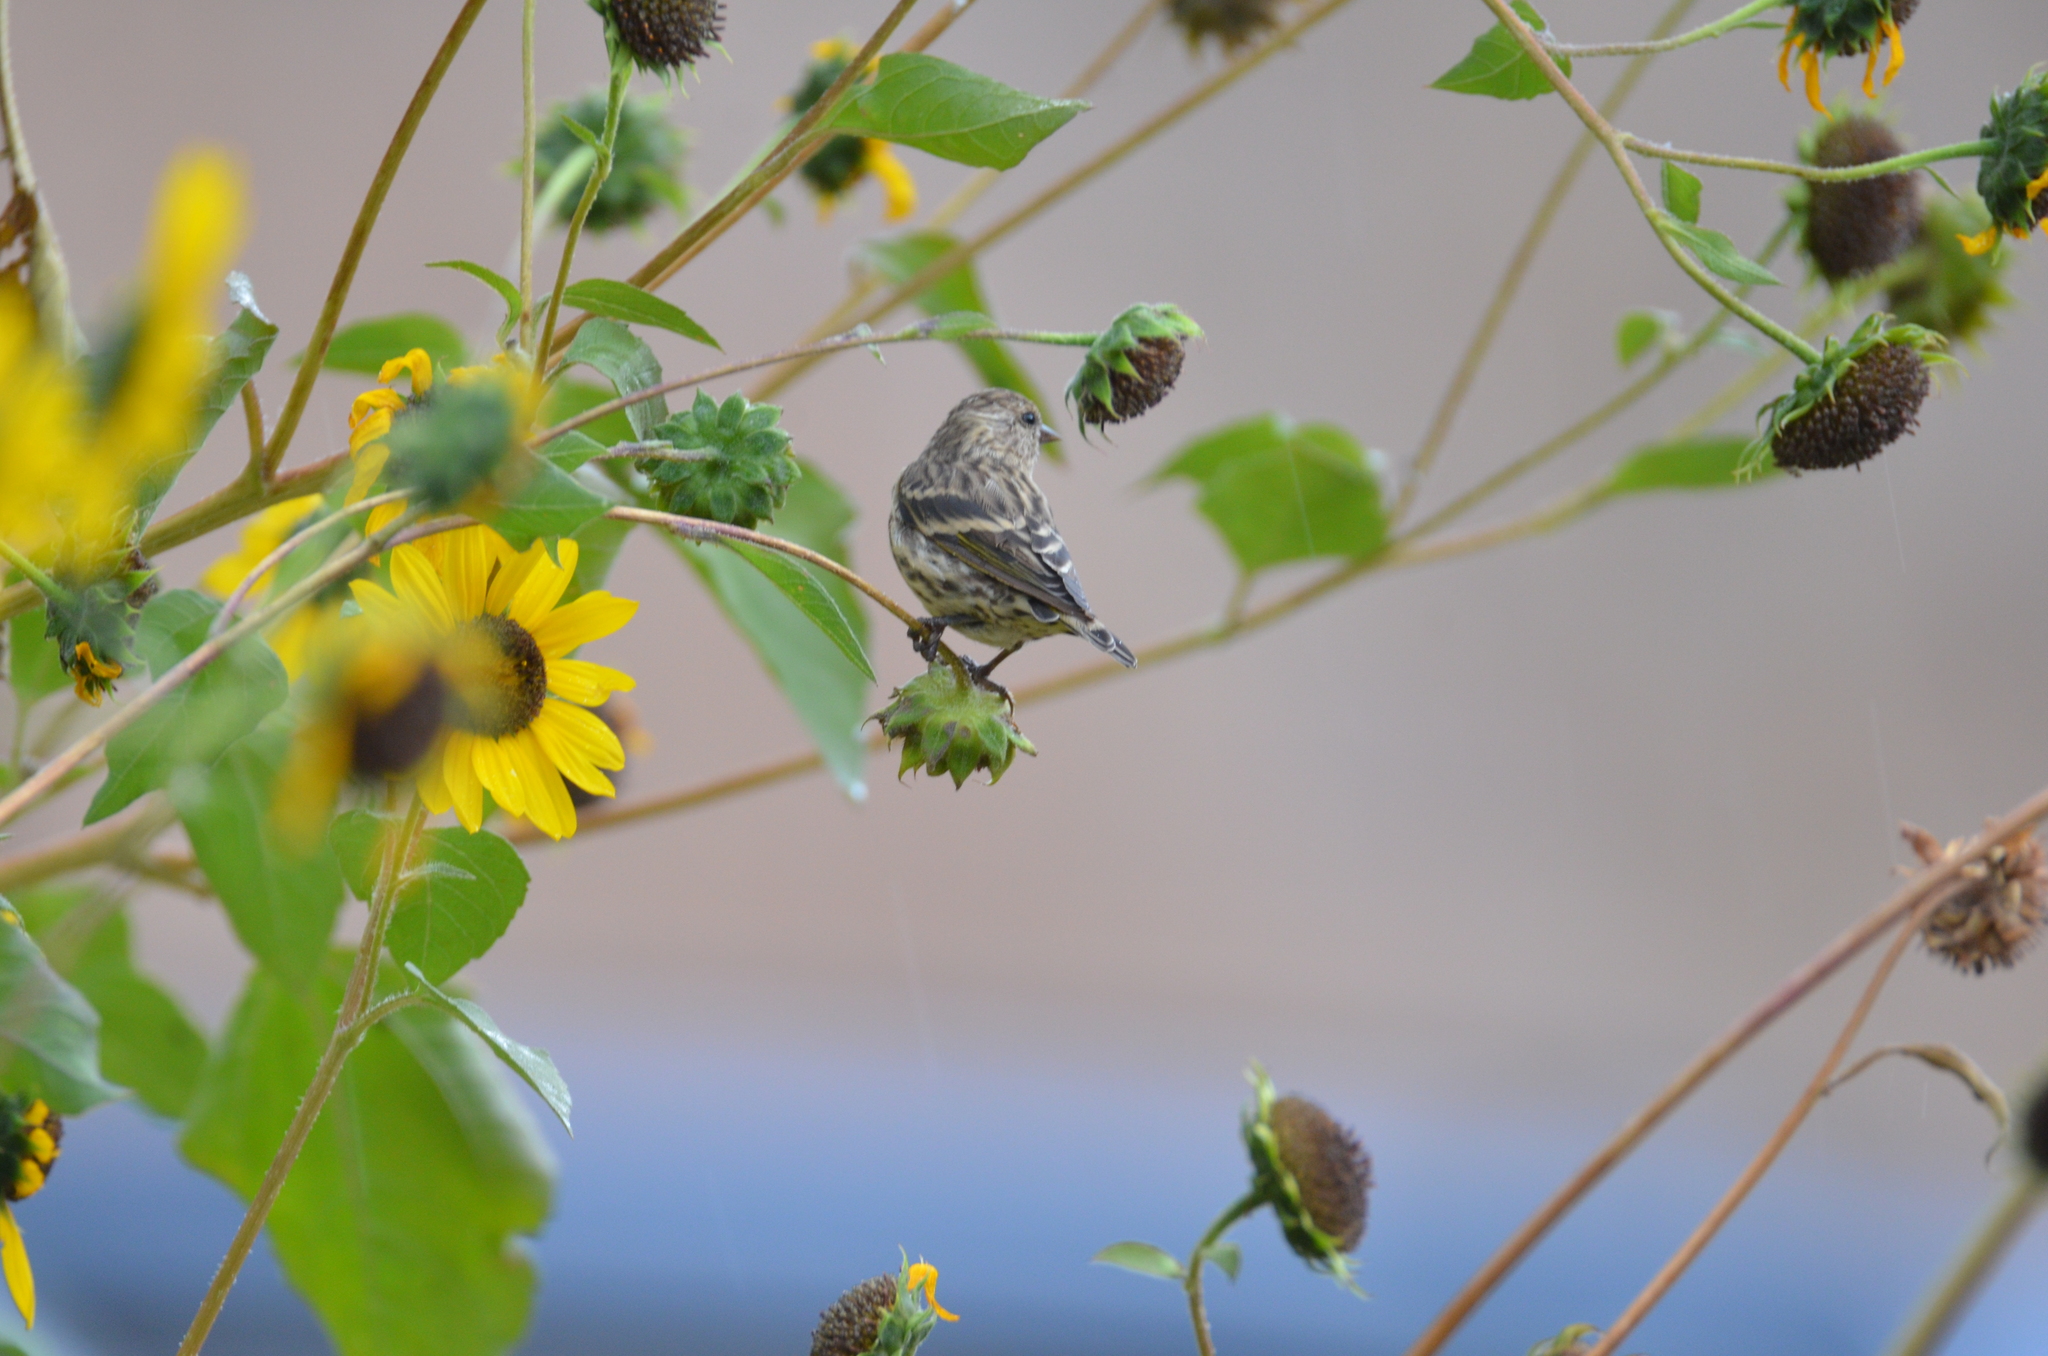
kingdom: Animalia
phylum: Chordata
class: Aves
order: Passeriformes
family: Fringillidae
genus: Spinus
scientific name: Spinus pinus
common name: Pine siskin
